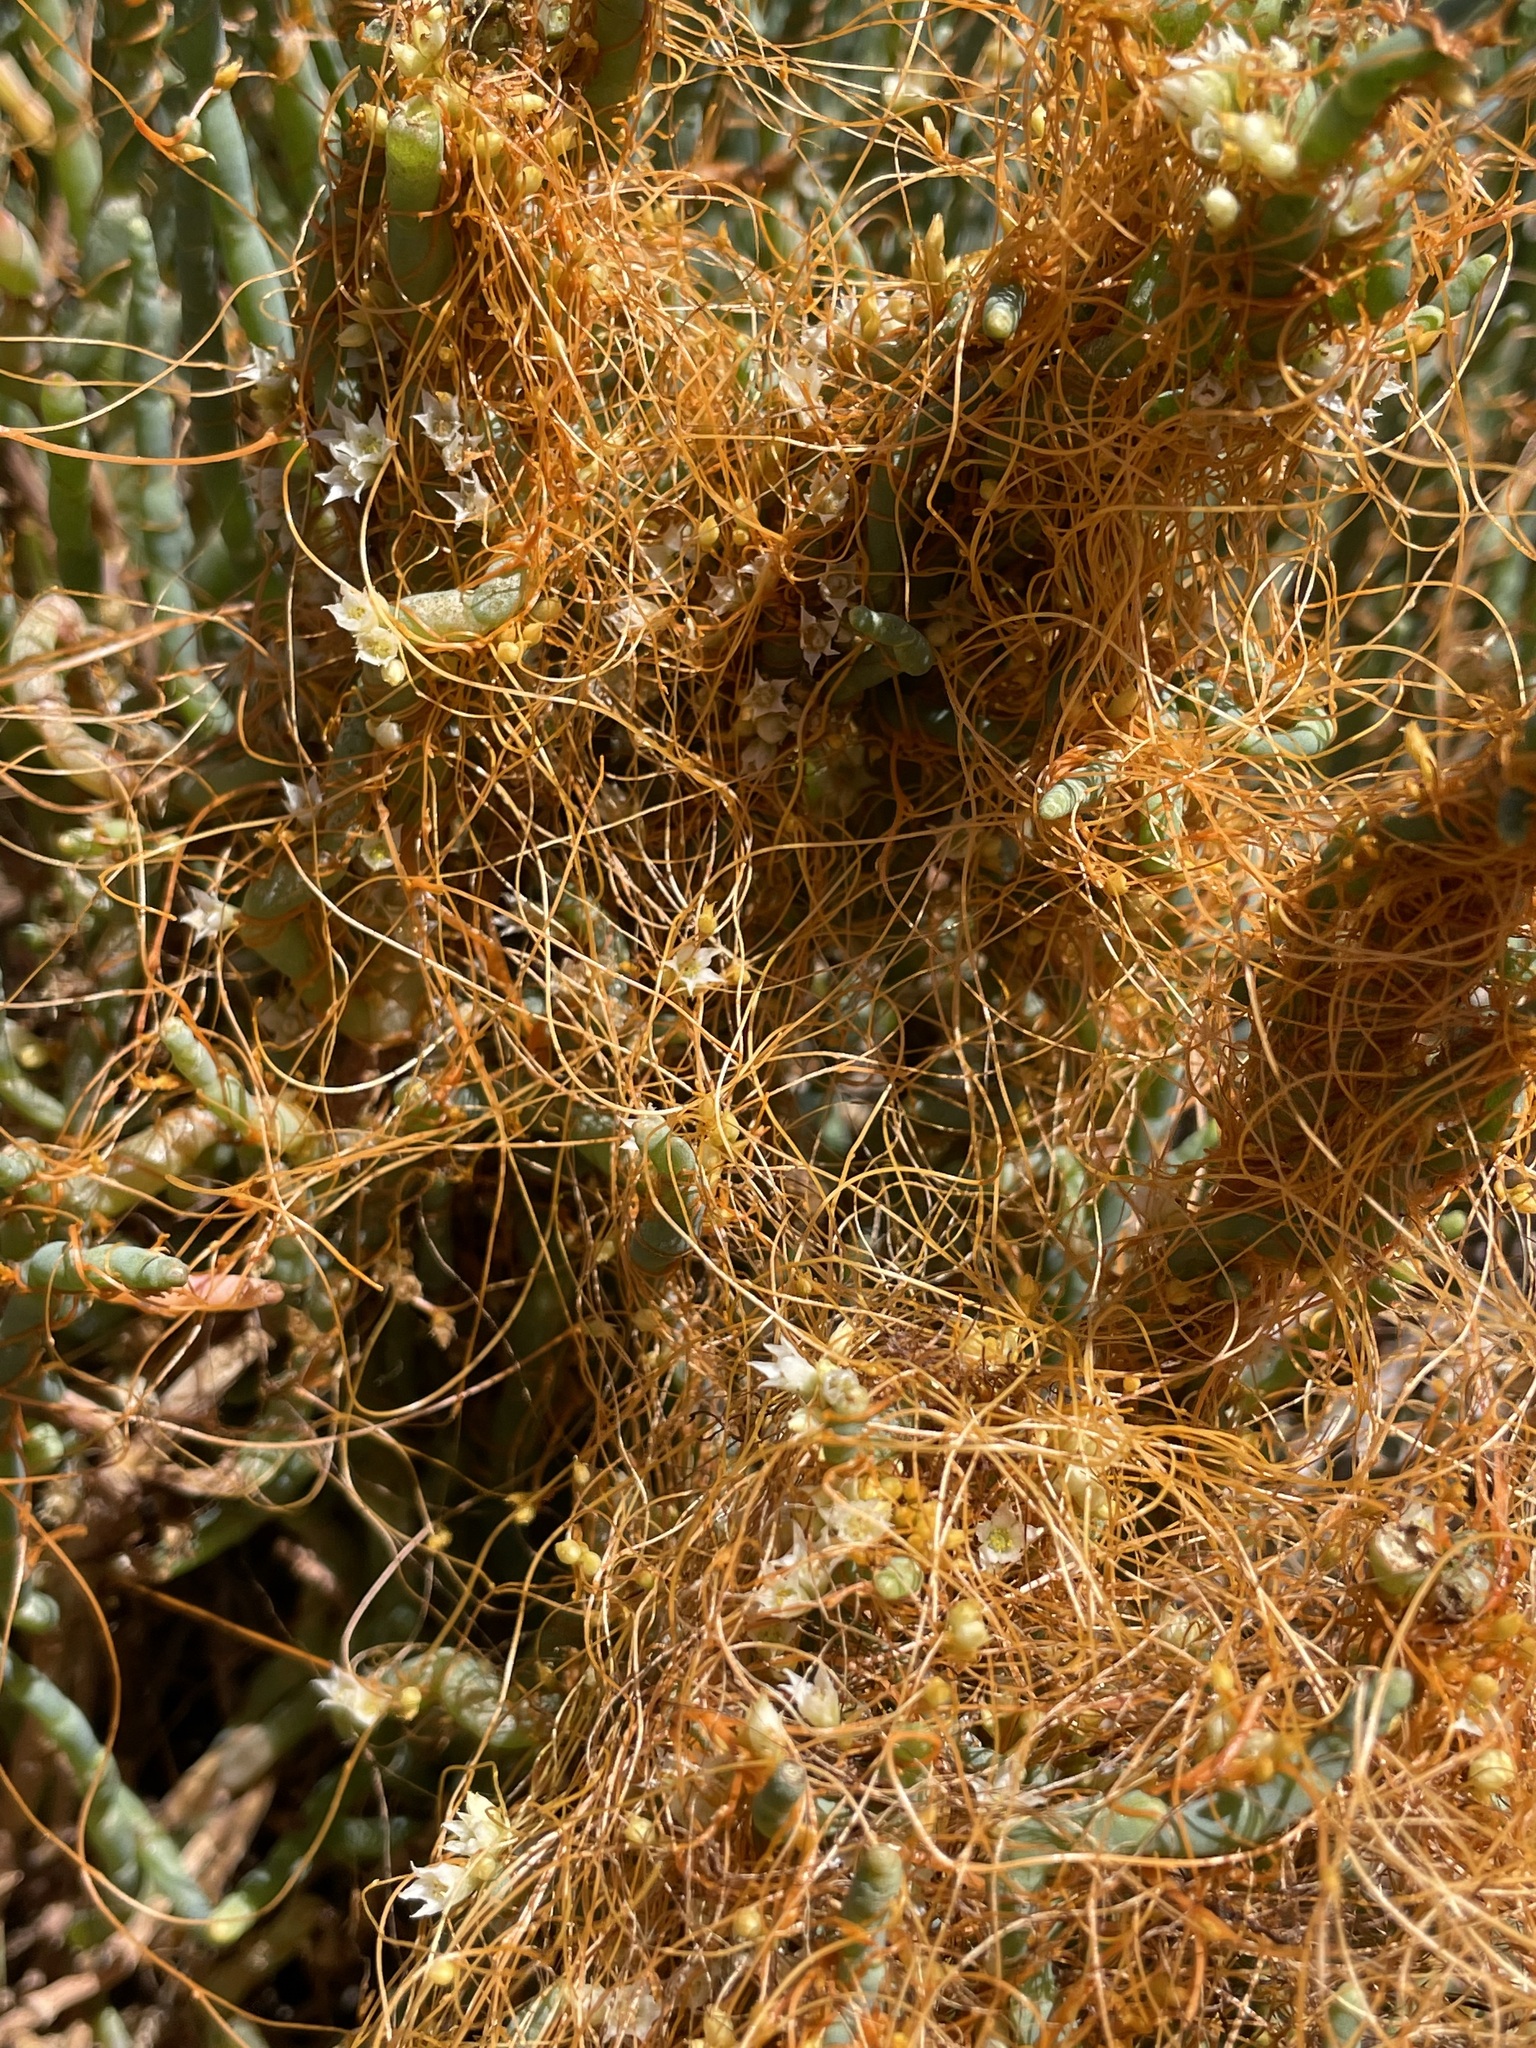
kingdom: Plantae
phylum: Tracheophyta
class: Magnoliopsida
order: Solanales
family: Convolvulaceae
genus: Cuscuta
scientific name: Cuscuta pacifica
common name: Large saltmarsh dodder
